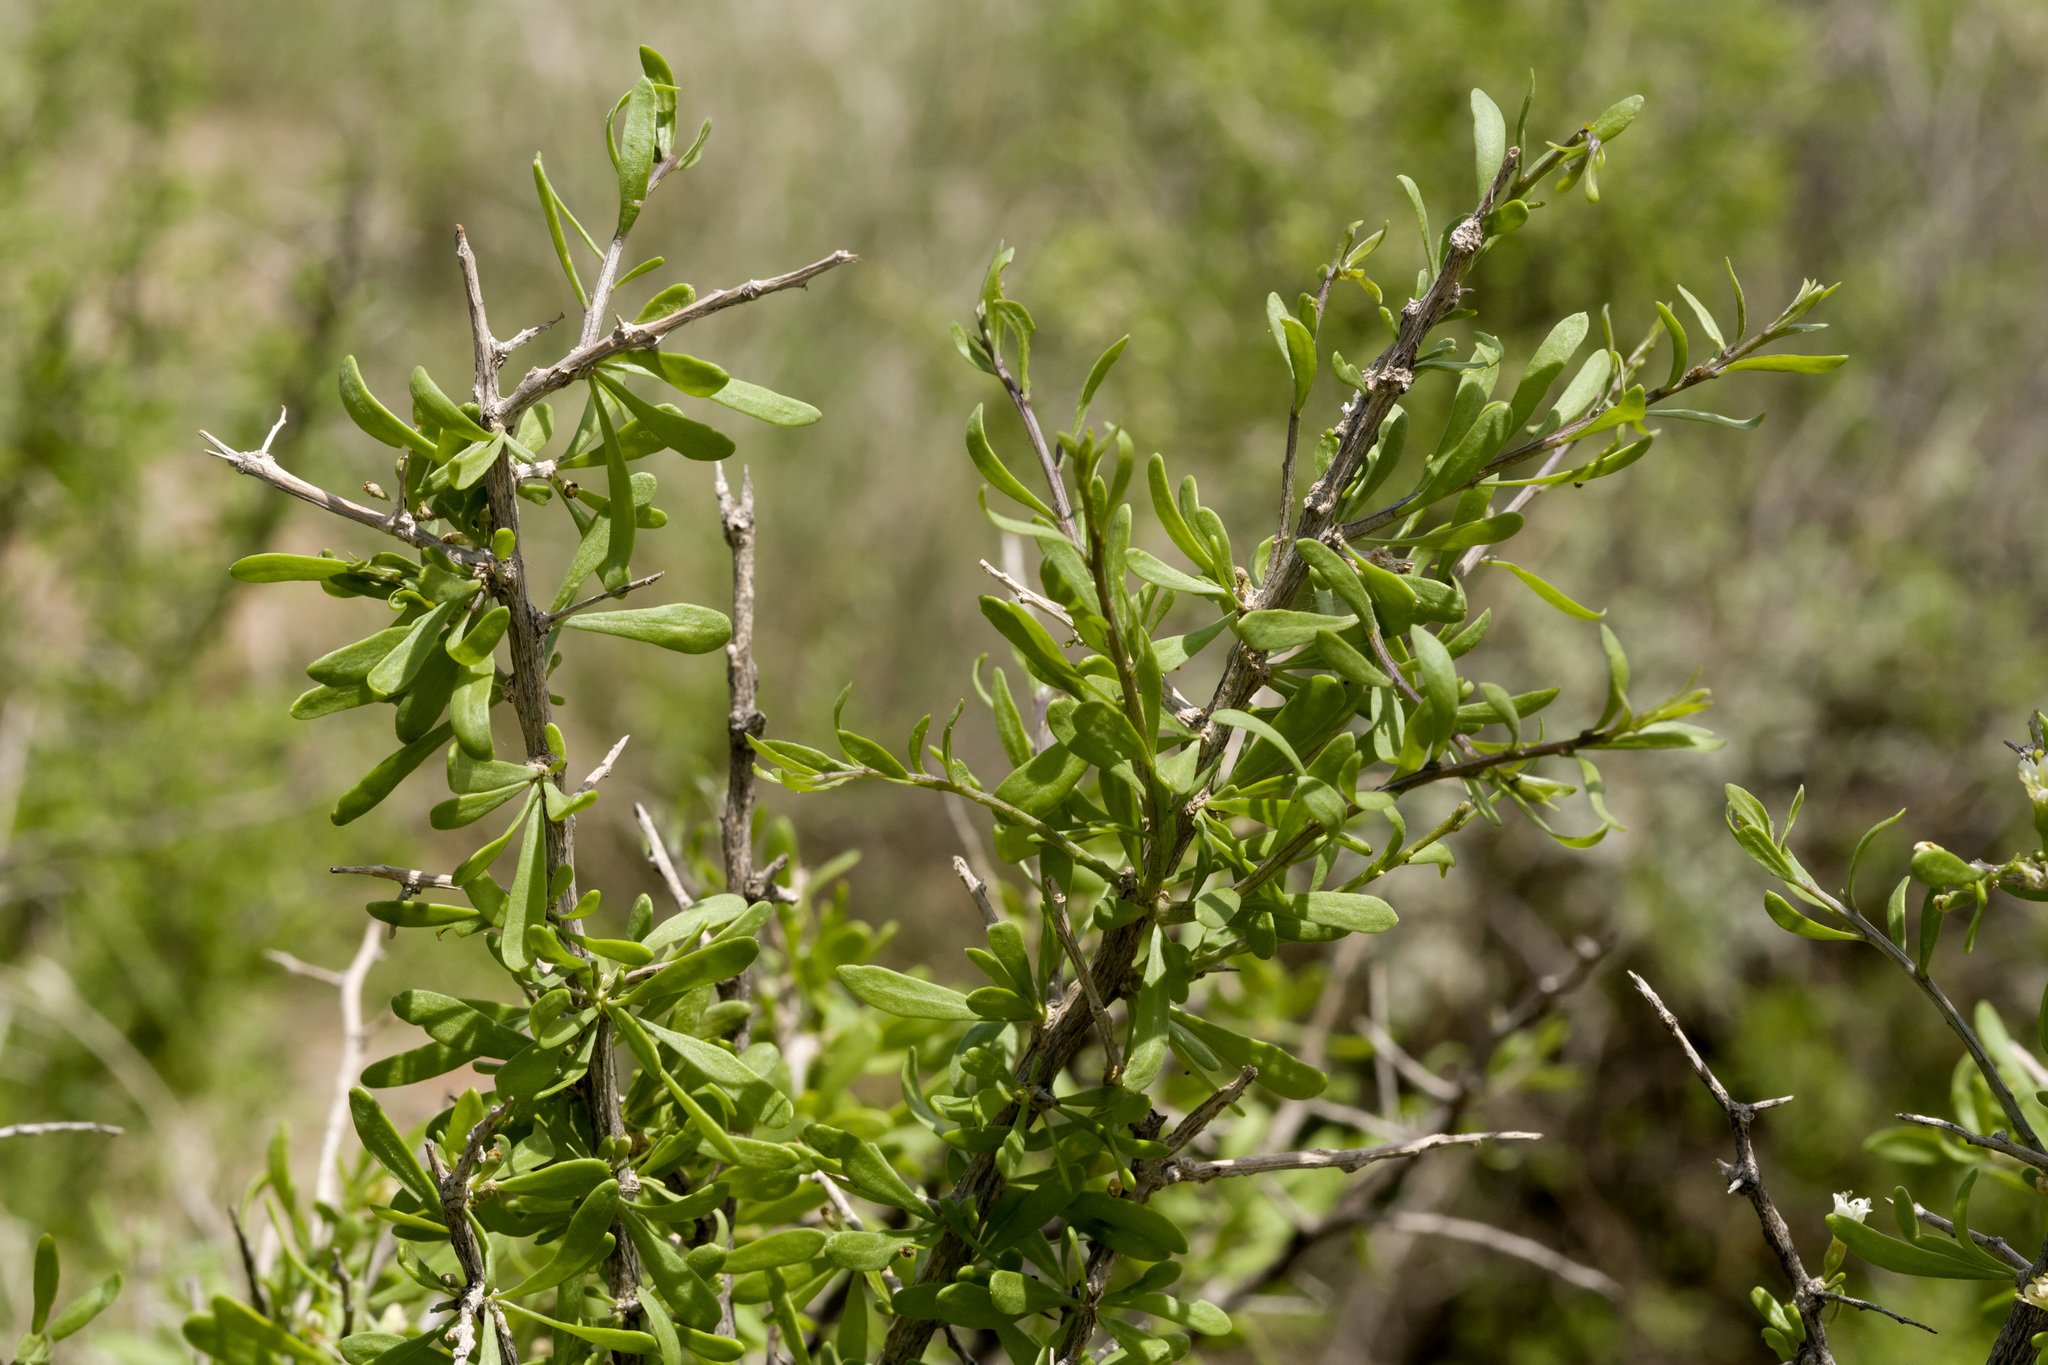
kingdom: Plantae
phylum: Tracheophyta
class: Magnoliopsida
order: Solanales
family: Solanaceae
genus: Lycium
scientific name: Lycium berlandieri
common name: Berlandier wolfberry
